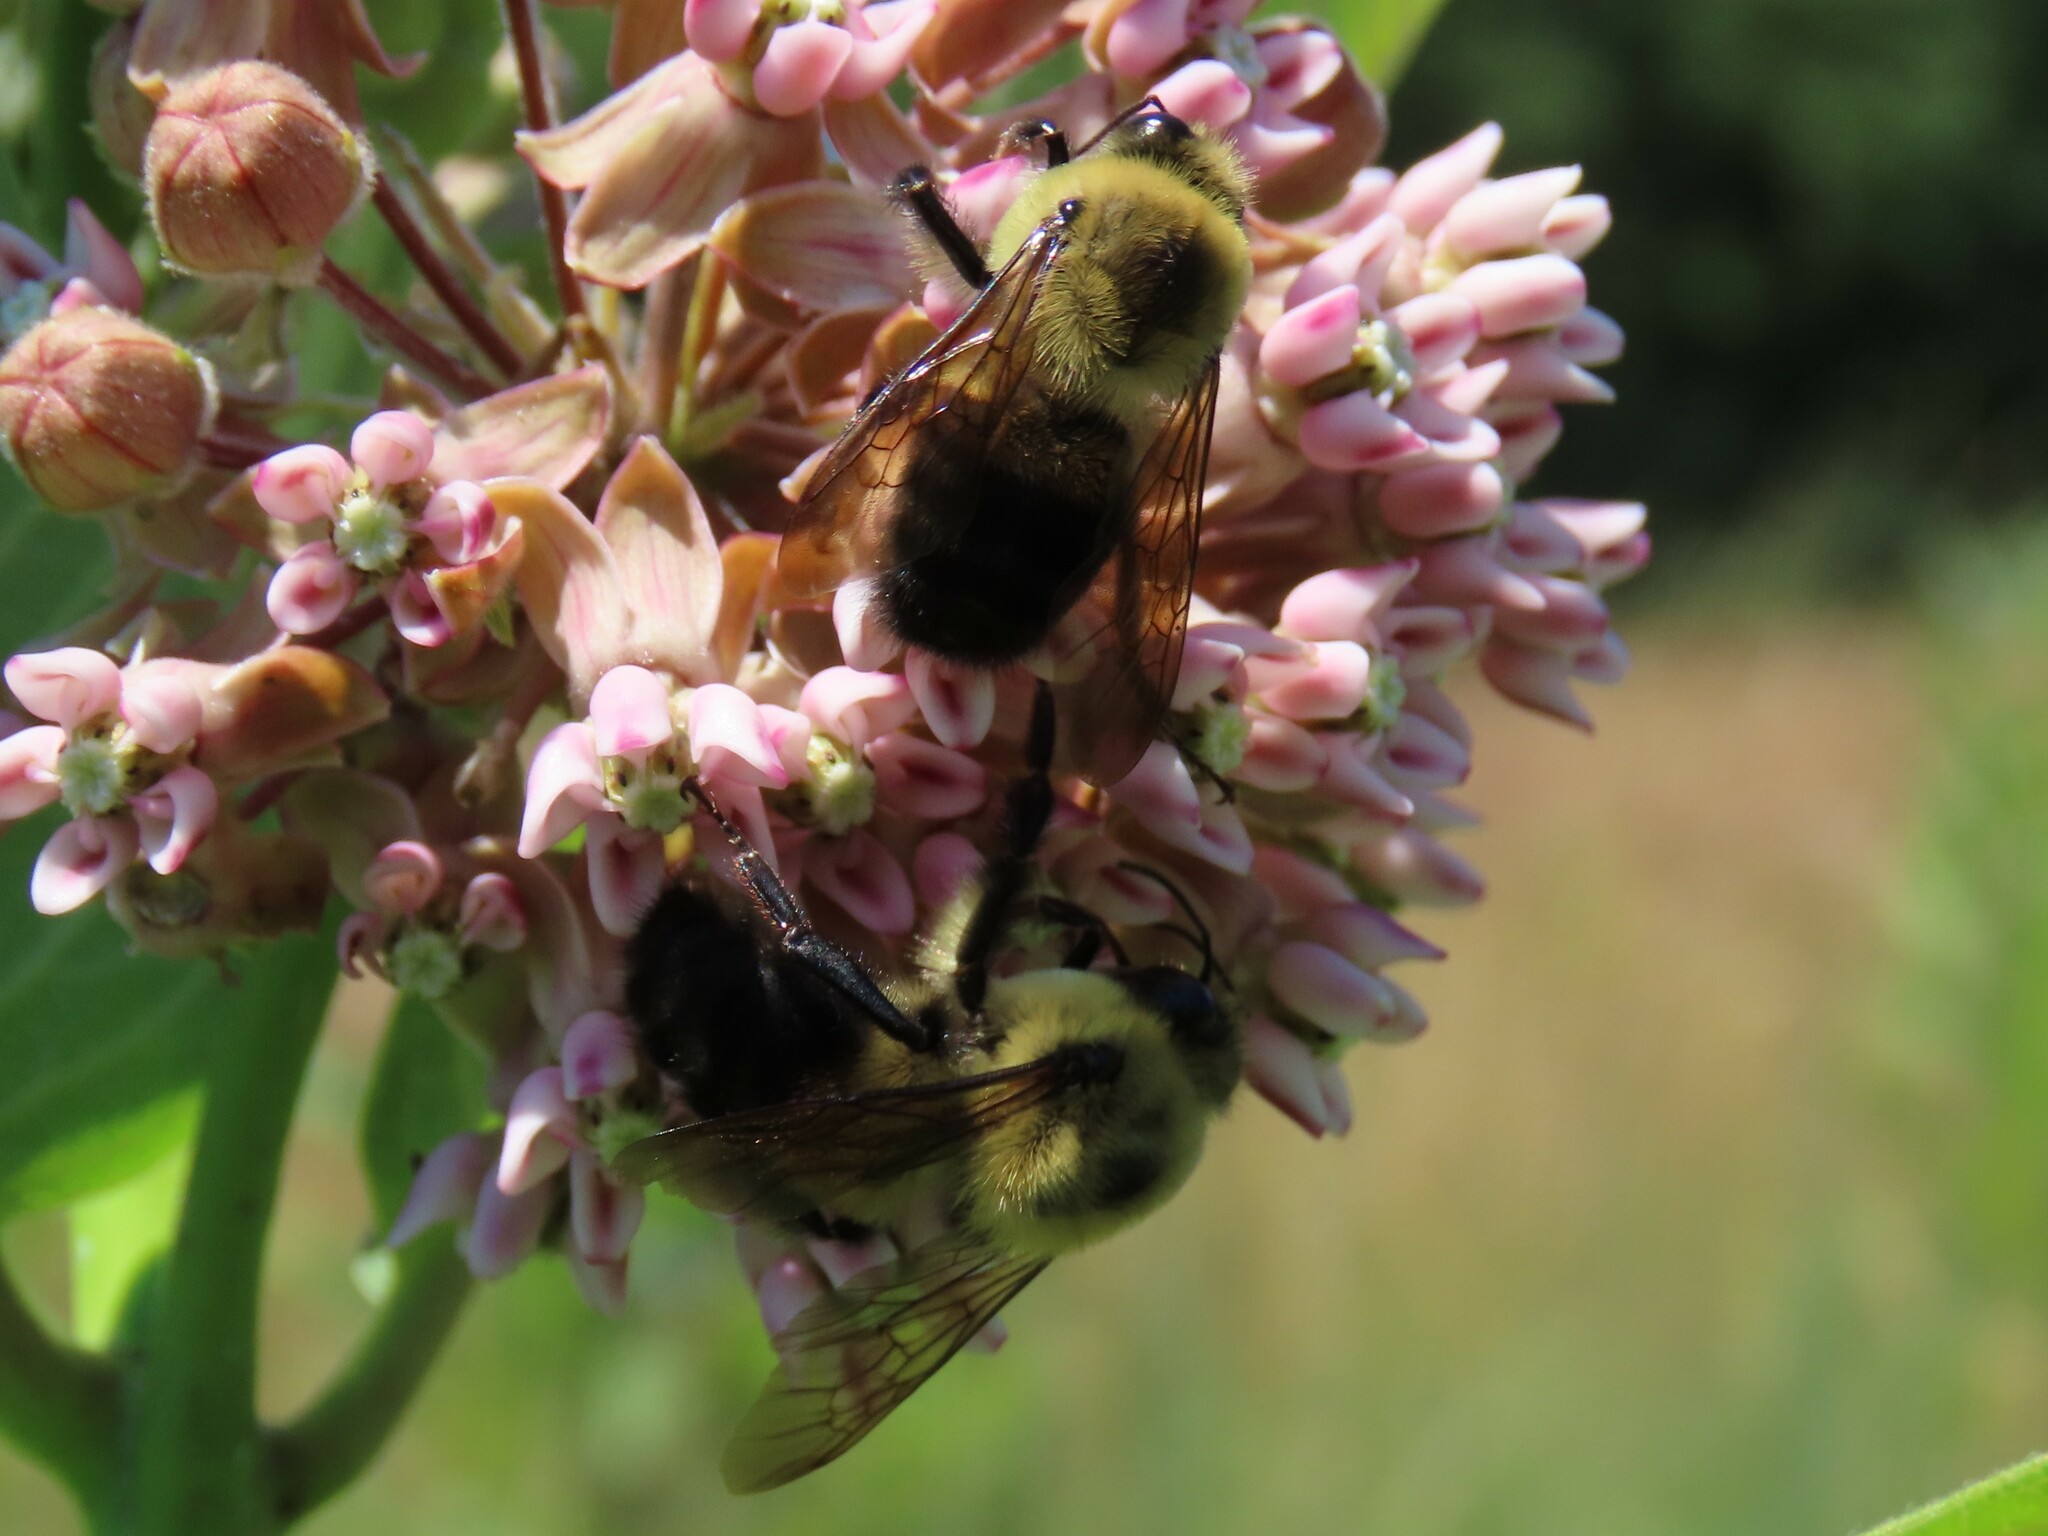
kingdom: Animalia
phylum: Arthropoda
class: Insecta
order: Hymenoptera
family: Apidae
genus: Bombus
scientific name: Bombus griseocollis
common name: Brown-belted bumble bee
